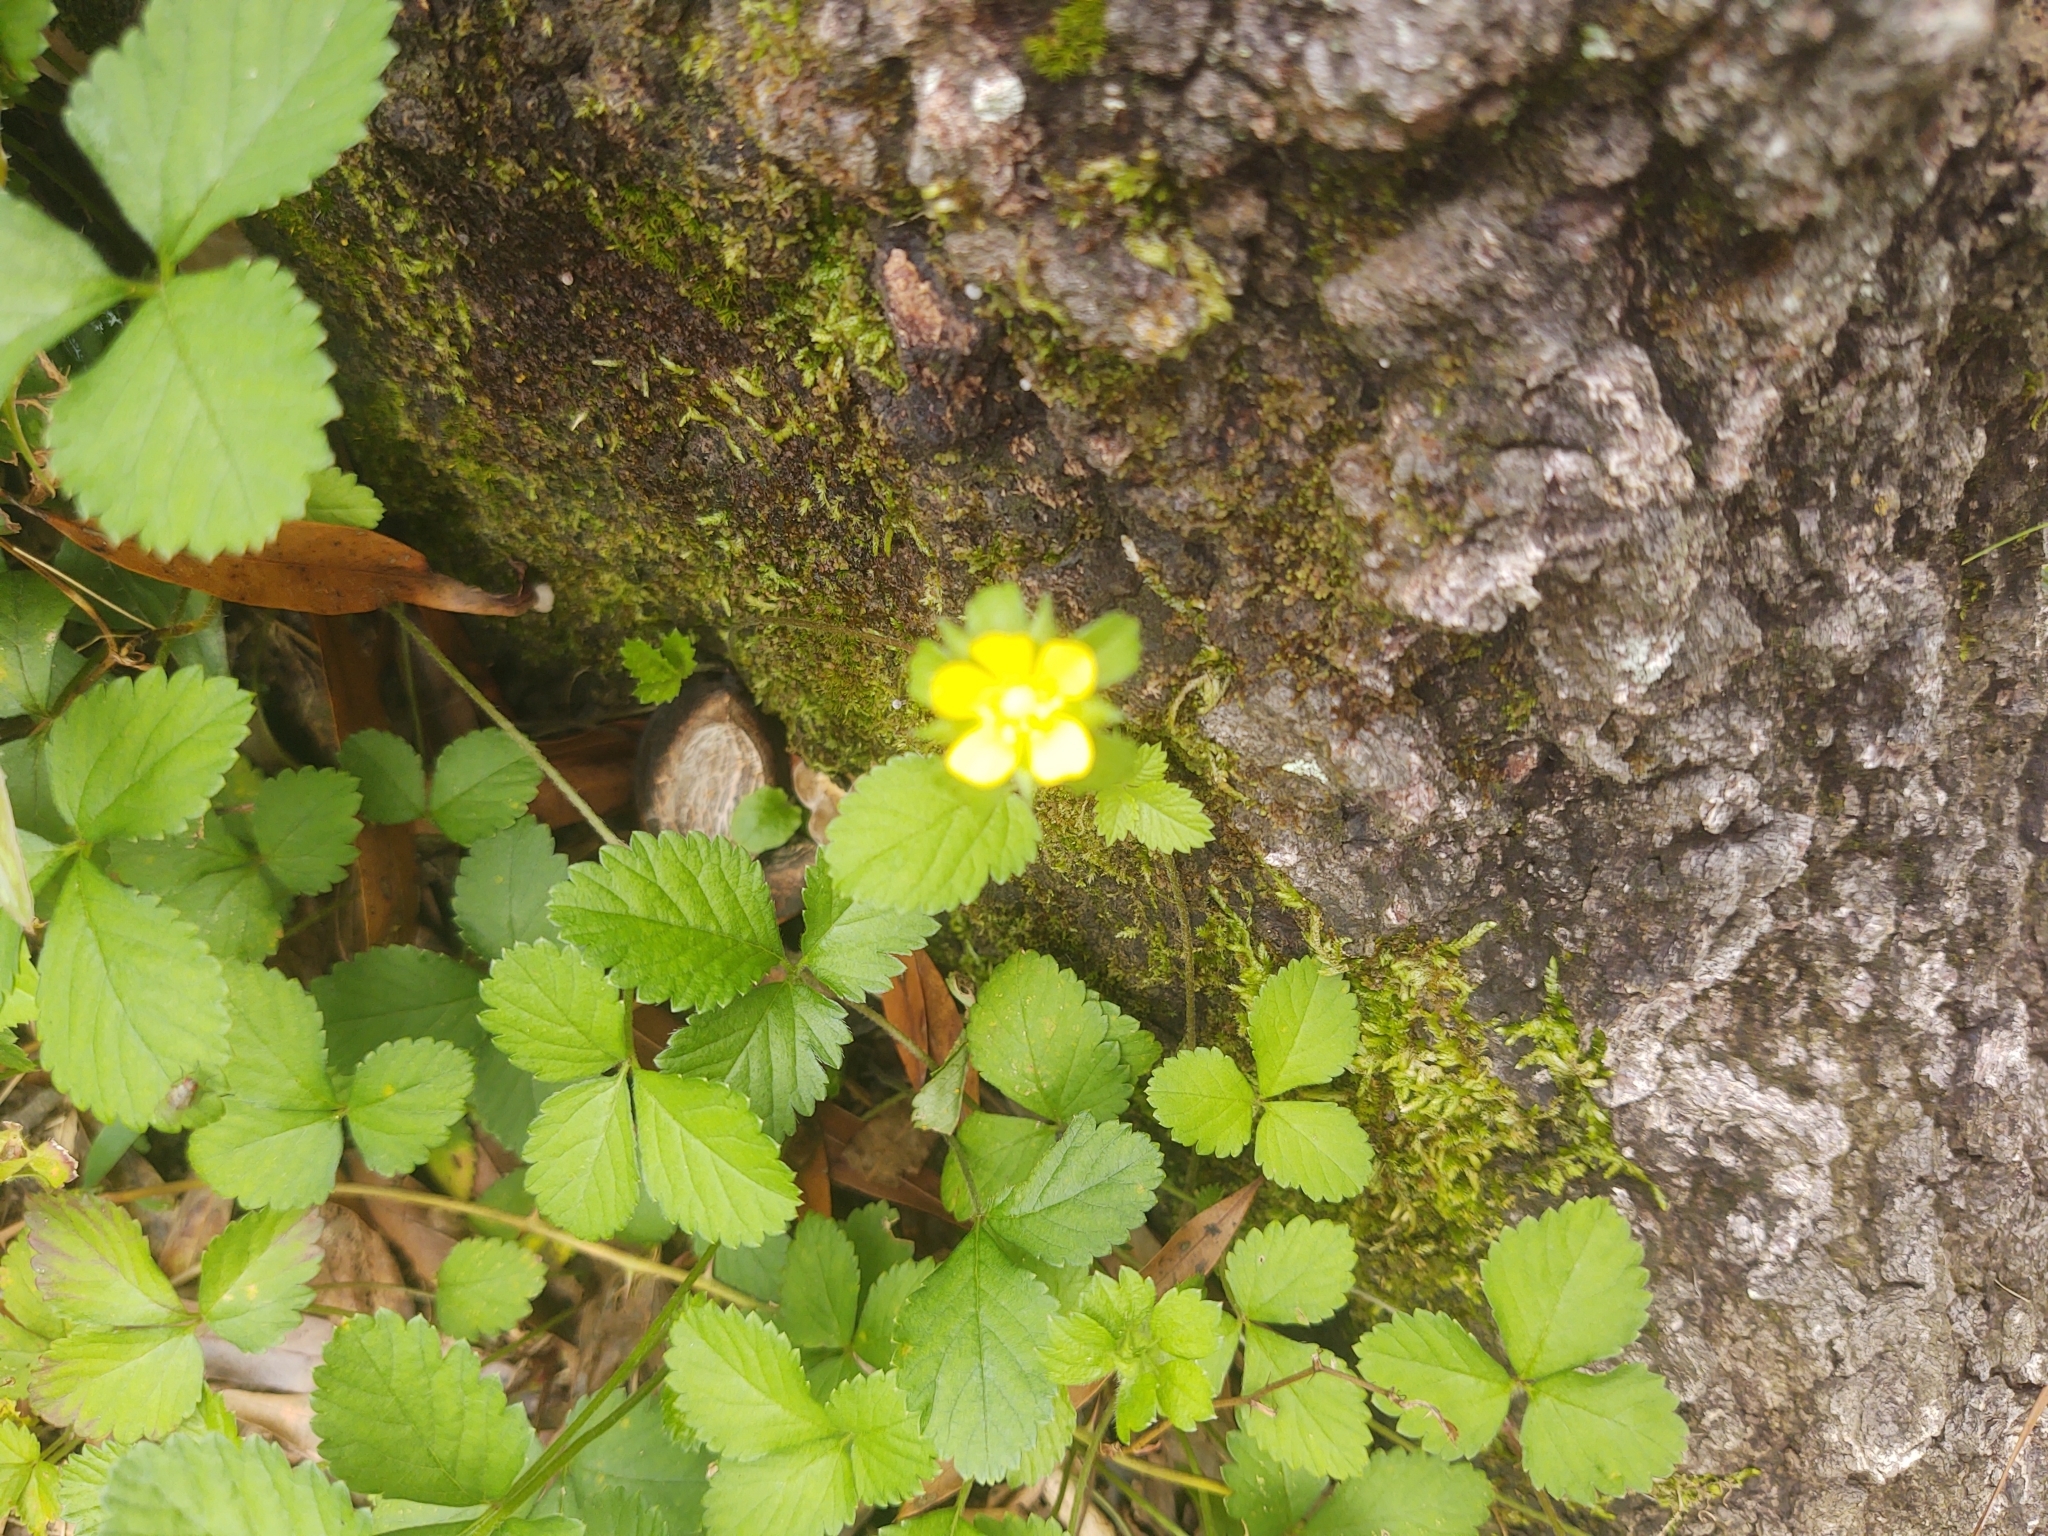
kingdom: Plantae
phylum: Tracheophyta
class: Magnoliopsida
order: Rosales
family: Rosaceae
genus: Potentilla
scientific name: Potentilla indica
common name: Yellow-flowered strawberry
